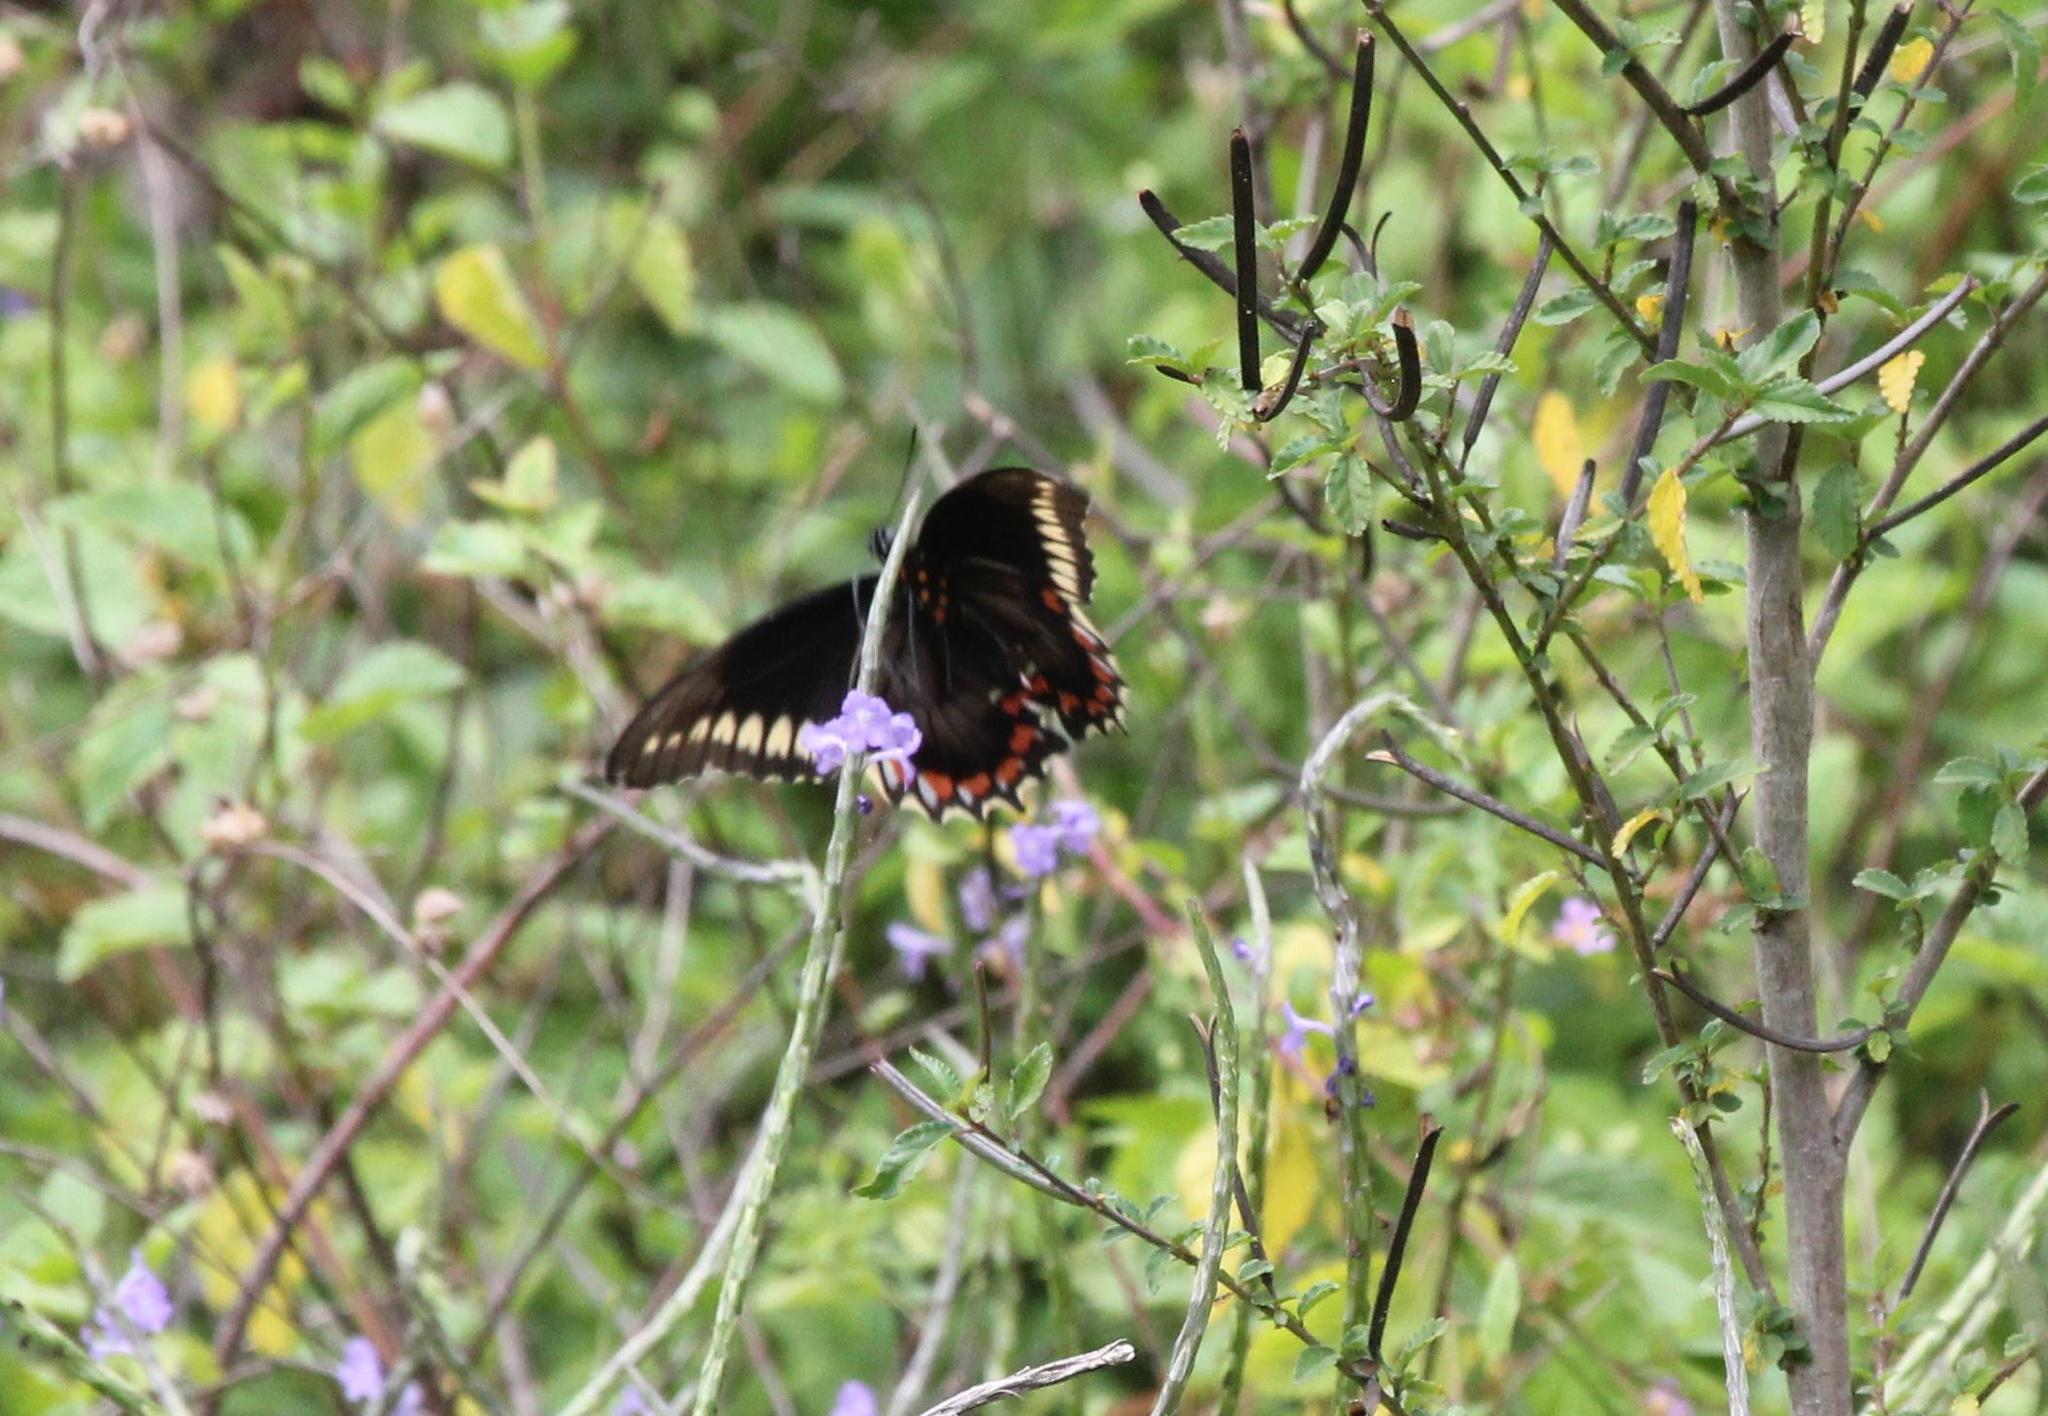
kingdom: Animalia
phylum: Arthropoda
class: Insecta
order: Lepidoptera
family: Papilionidae
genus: Battus
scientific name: Battus polydamas
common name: Polydamas swallowtail
